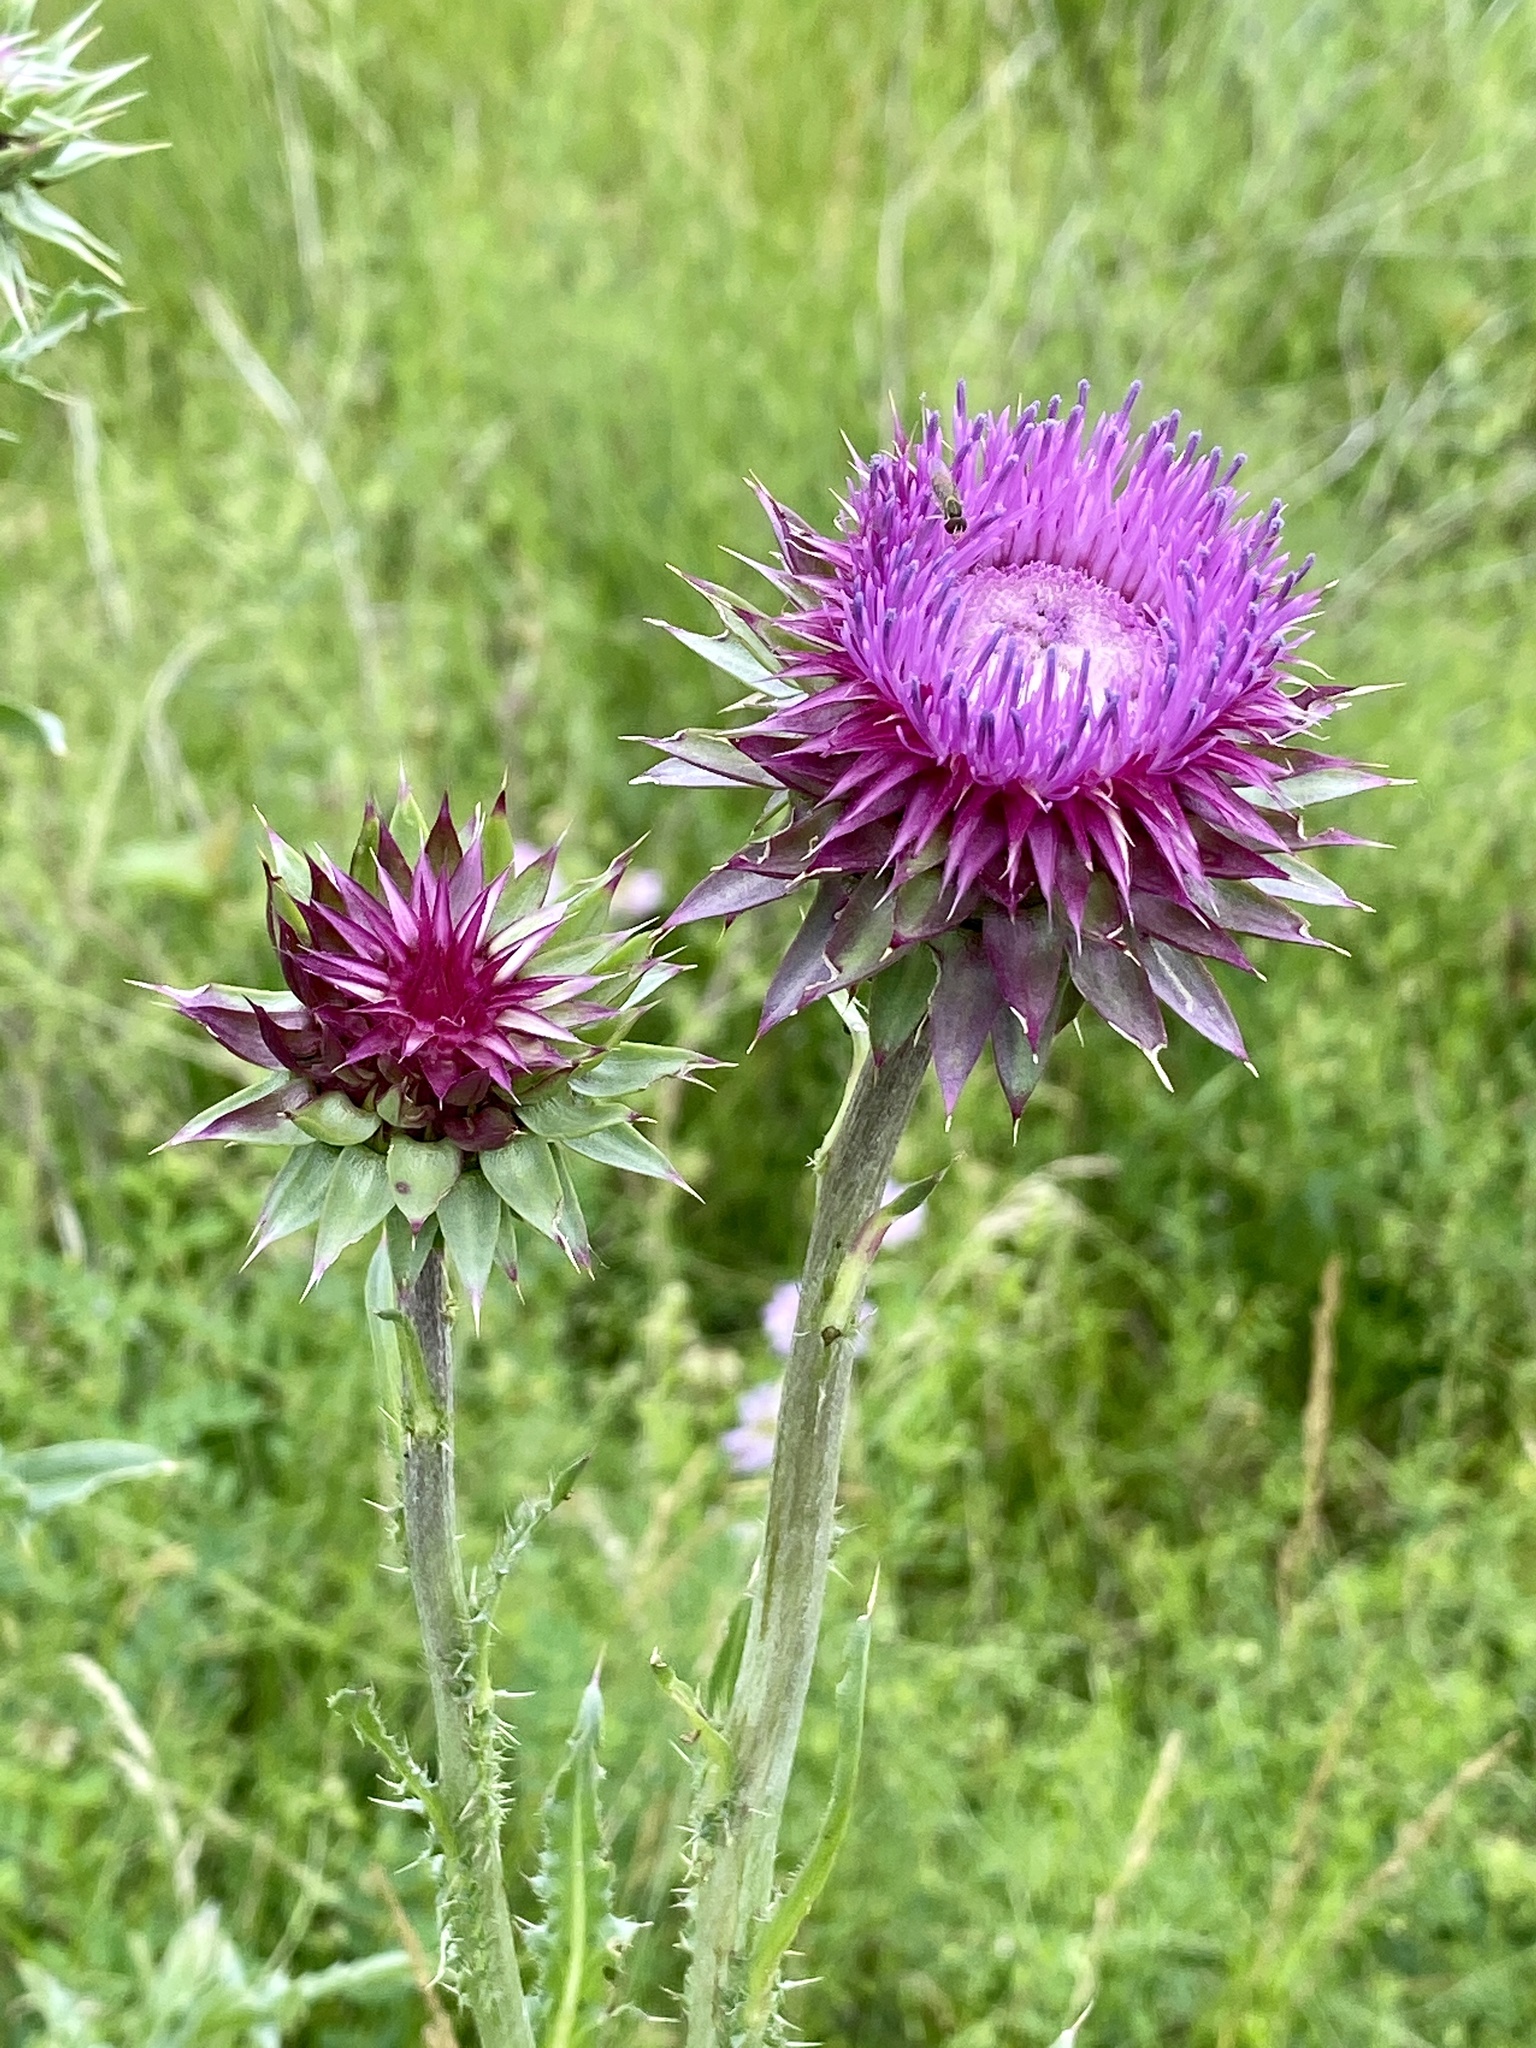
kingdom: Plantae
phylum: Tracheophyta
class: Magnoliopsida
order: Asterales
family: Asteraceae
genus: Carduus
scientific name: Carduus nutans
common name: Musk thistle
